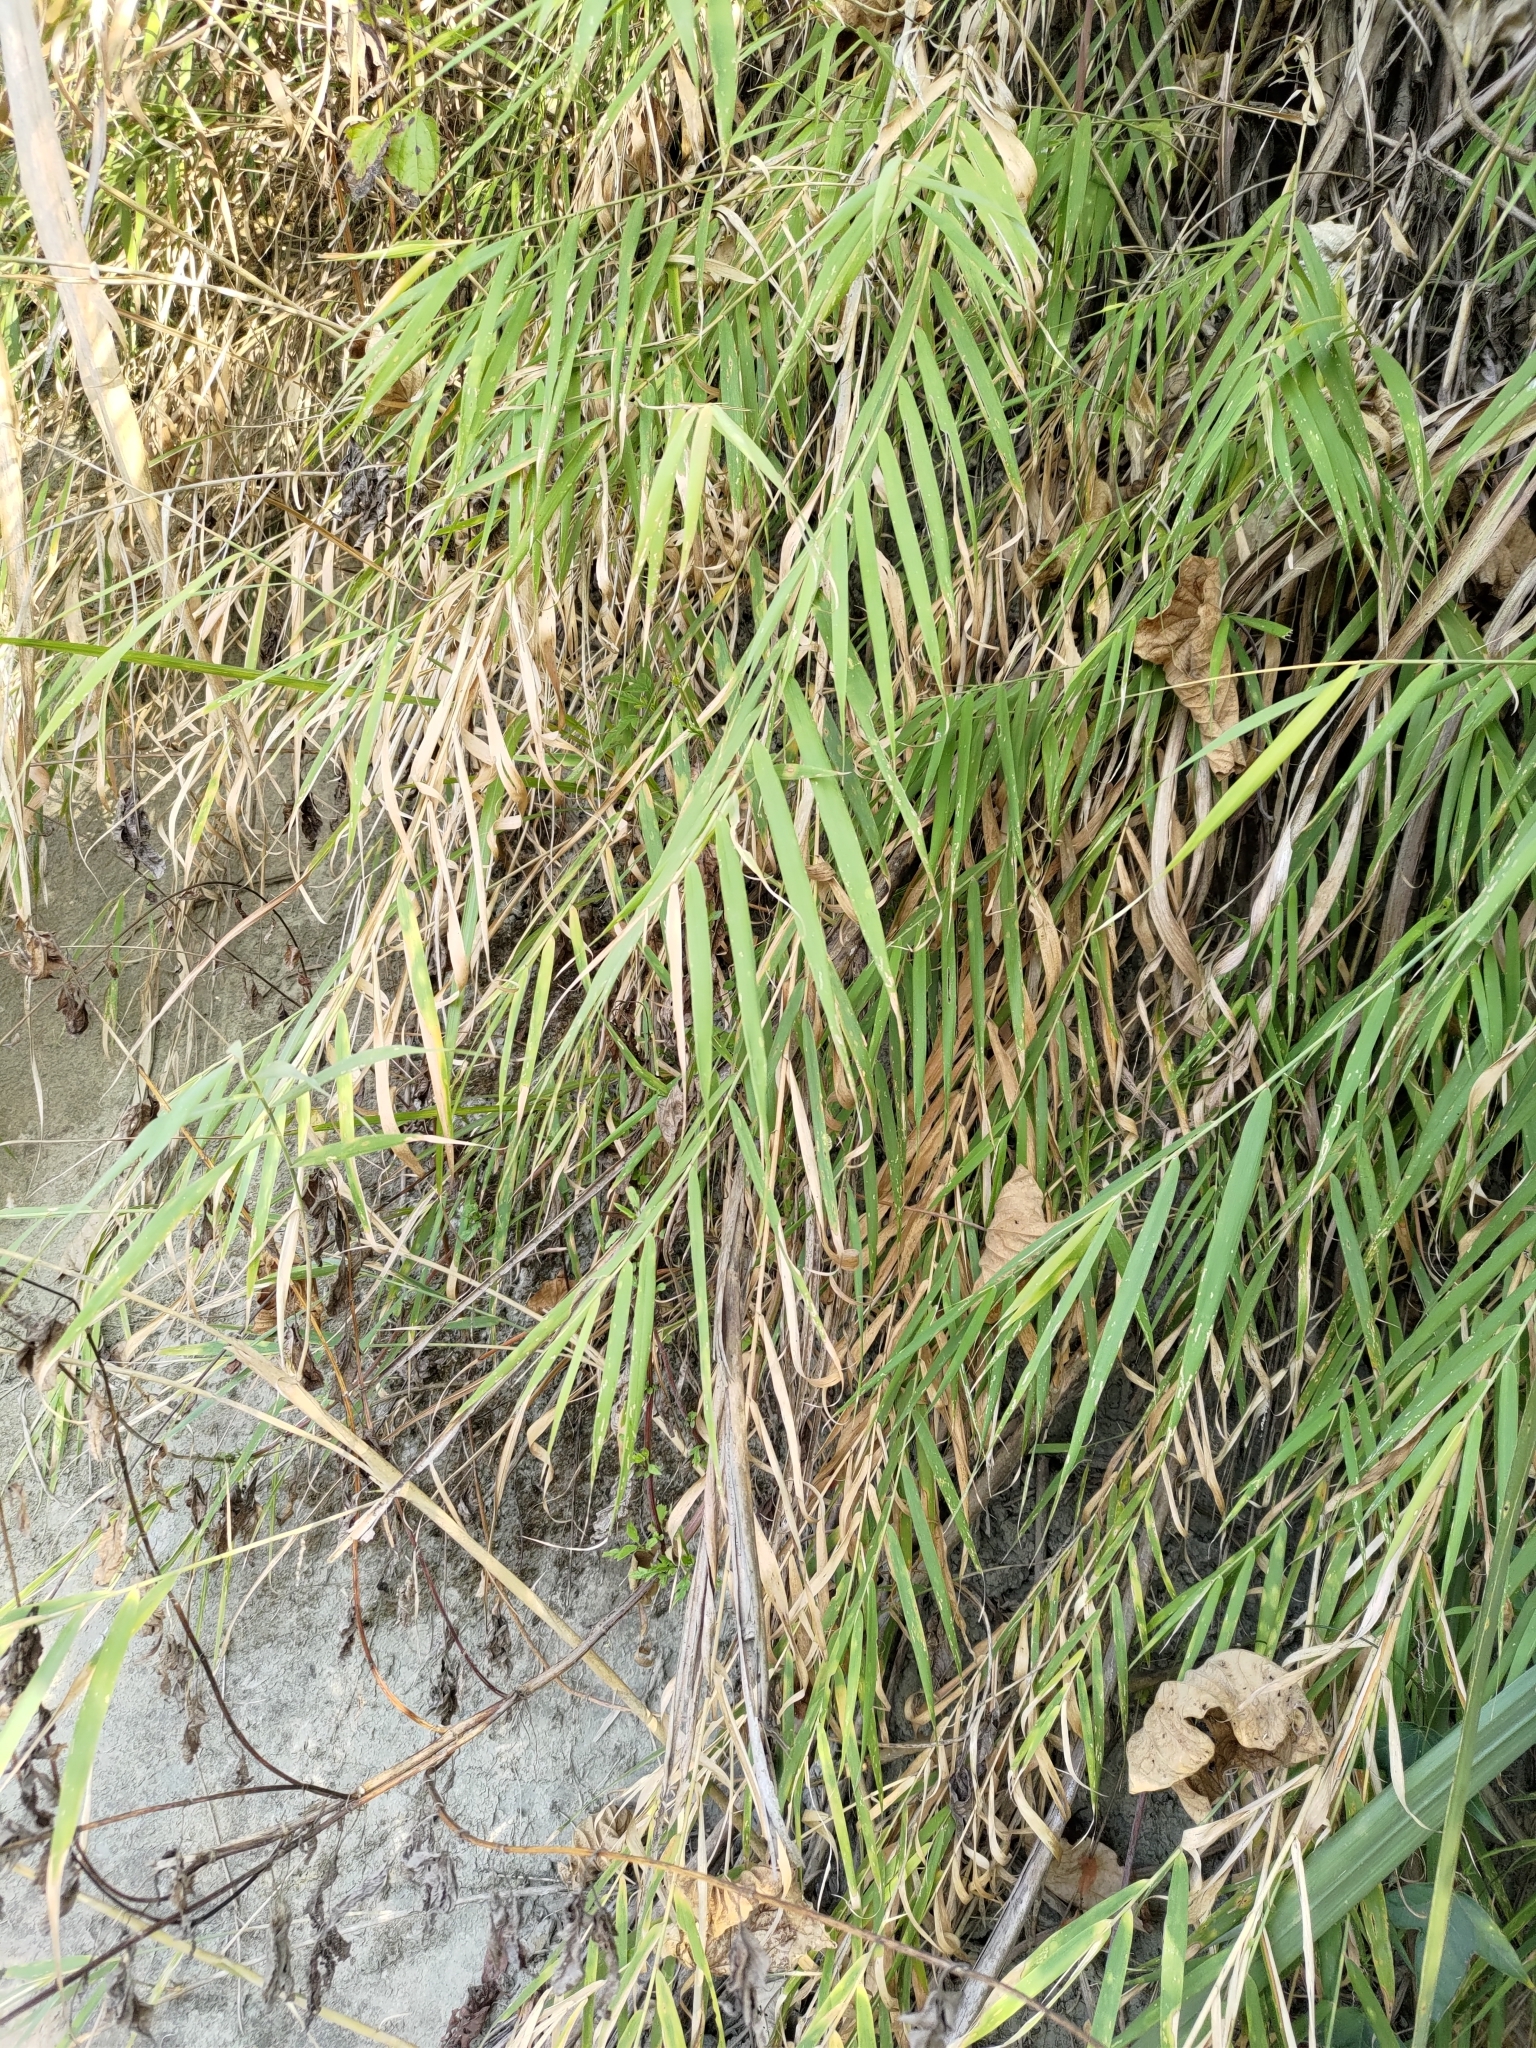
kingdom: Plantae
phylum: Tracheophyta
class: Liliopsida
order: Poales
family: Poaceae
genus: Arundo
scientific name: Arundo formosana
